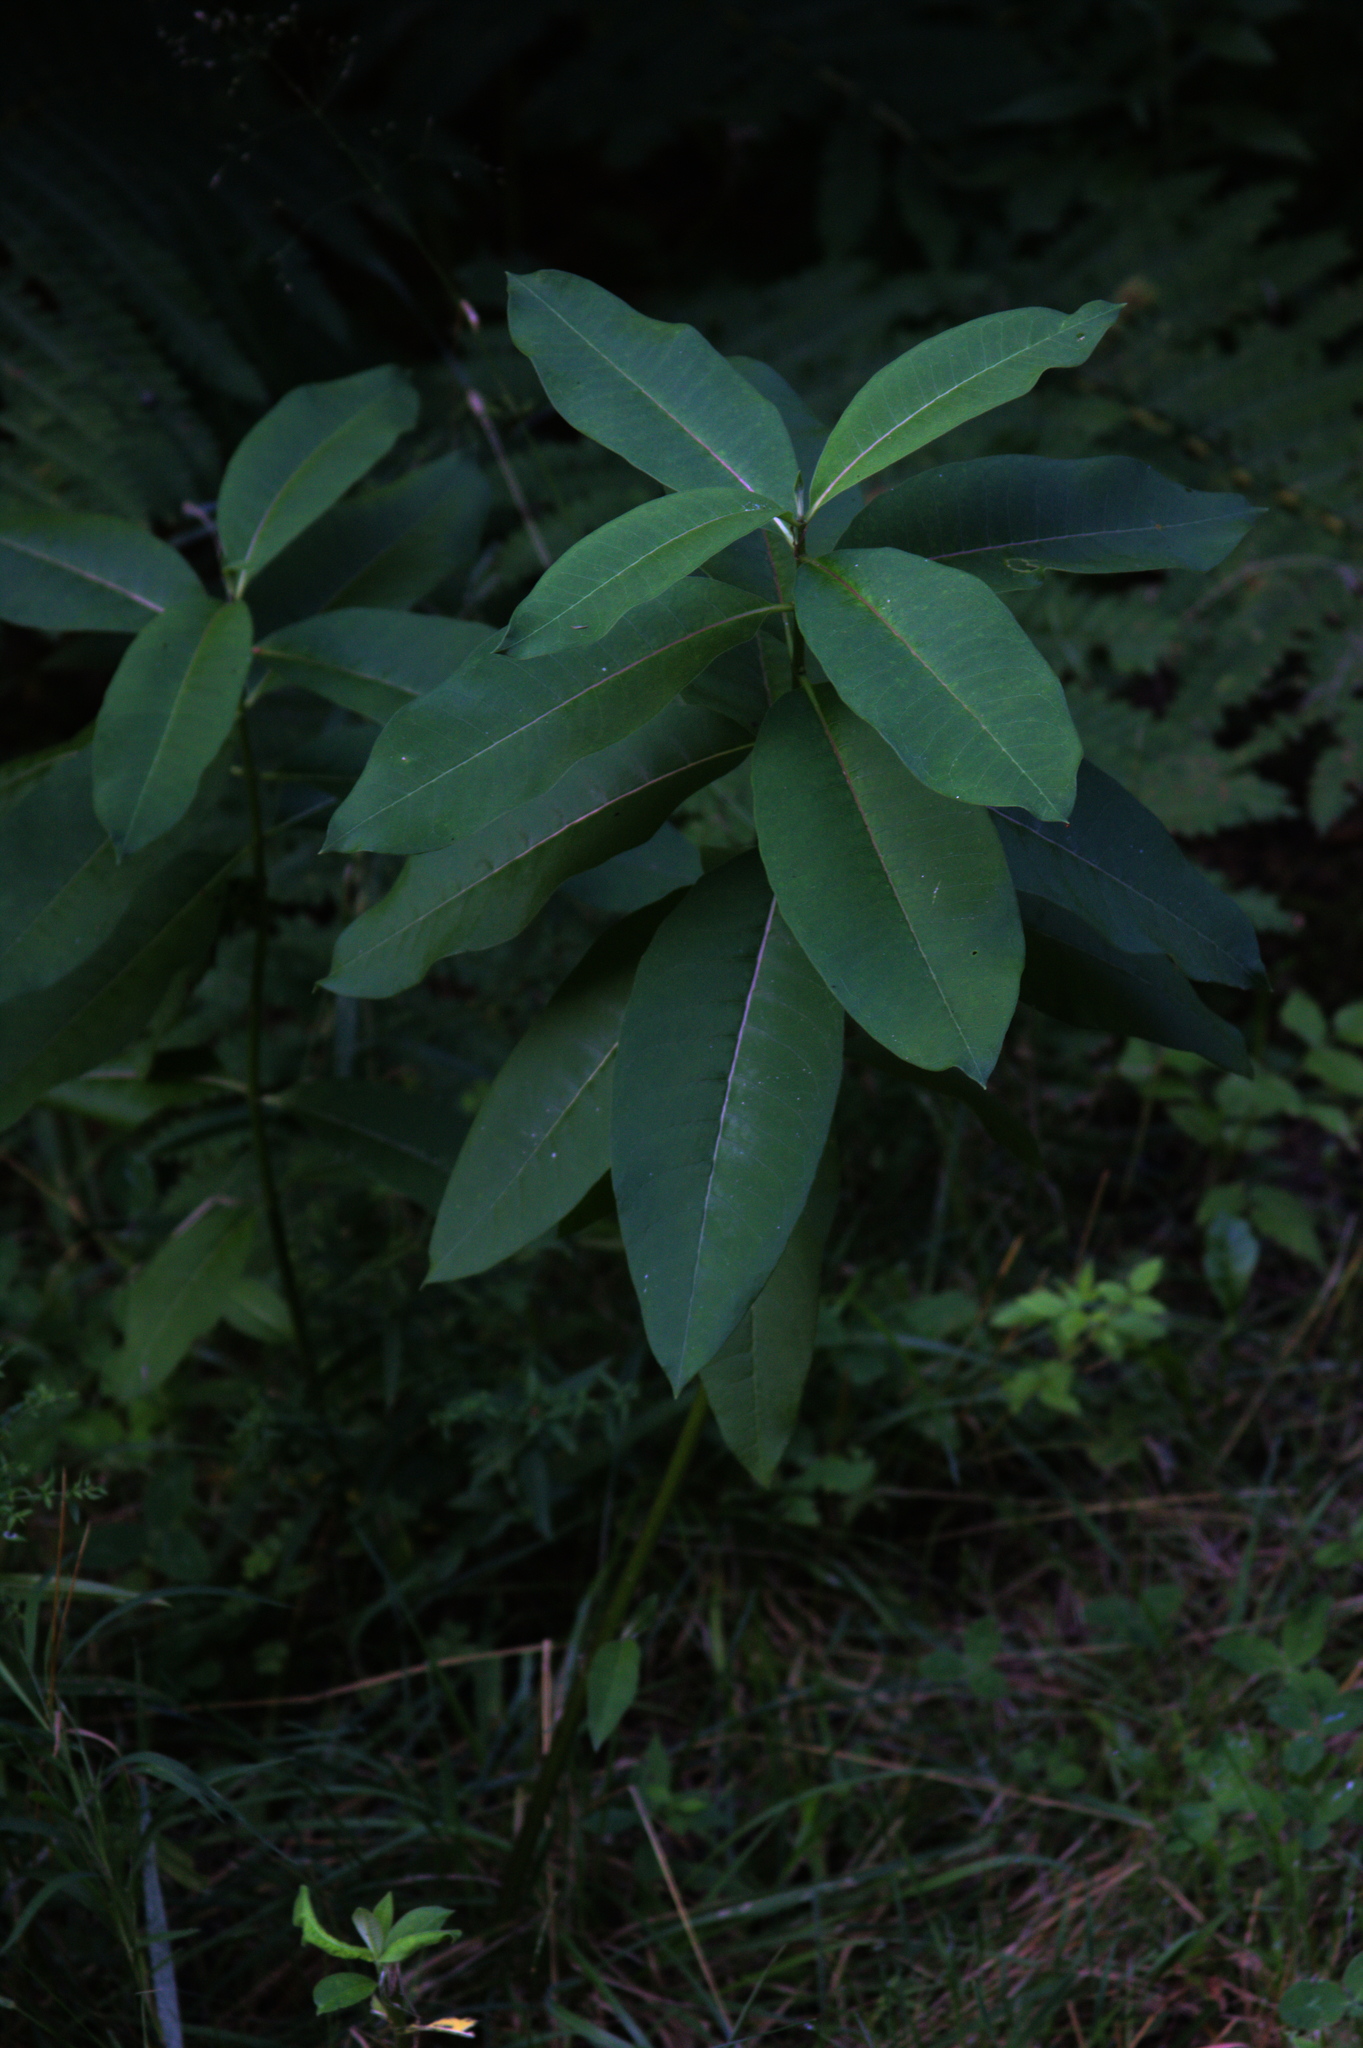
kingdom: Plantae
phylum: Tracheophyta
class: Magnoliopsida
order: Gentianales
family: Apocynaceae
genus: Asclepias
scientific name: Asclepias syriaca
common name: Common milkweed
